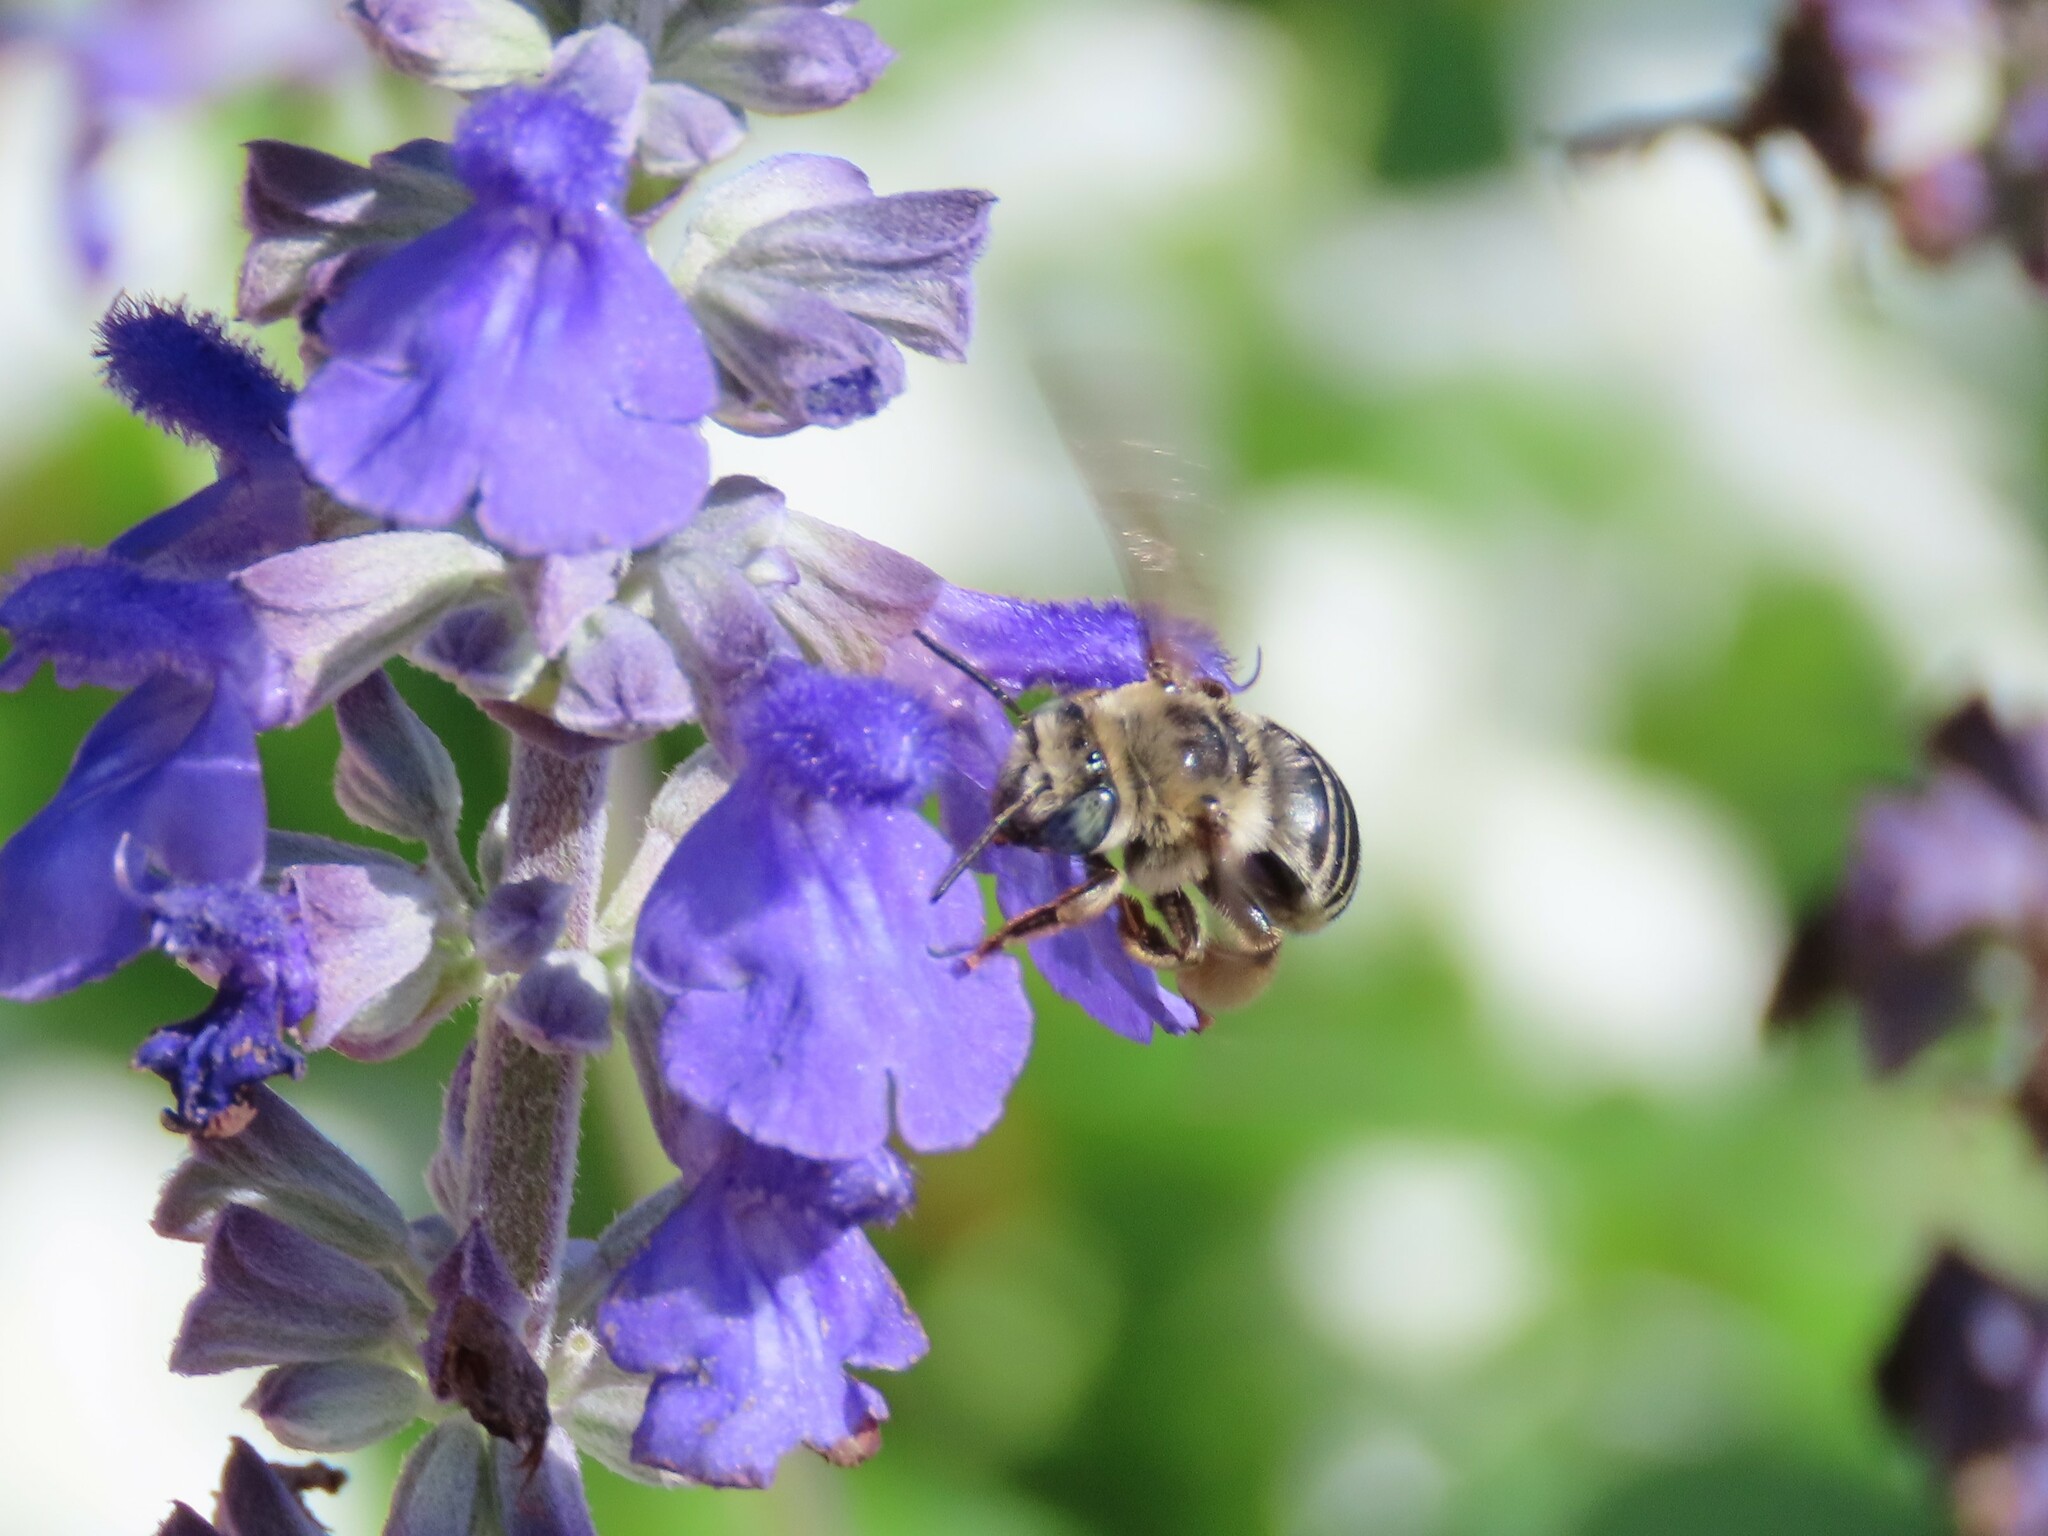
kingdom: Animalia
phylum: Arthropoda
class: Insecta
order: Hymenoptera
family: Apidae
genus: Melissodes
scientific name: Melissodes communis
